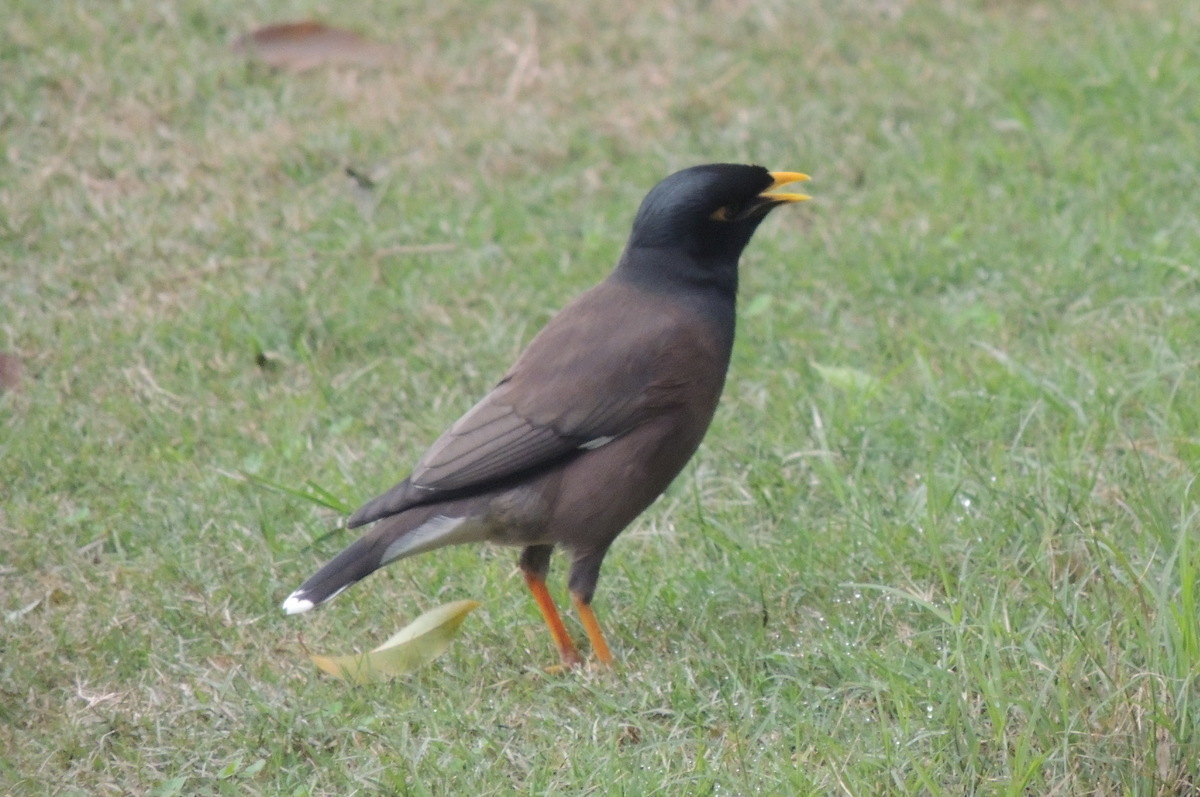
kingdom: Animalia
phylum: Chordata
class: Aves
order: Passeriformes
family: Sturnidae
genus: Acridotheres
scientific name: Acridotheres tristis
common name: Common myna
